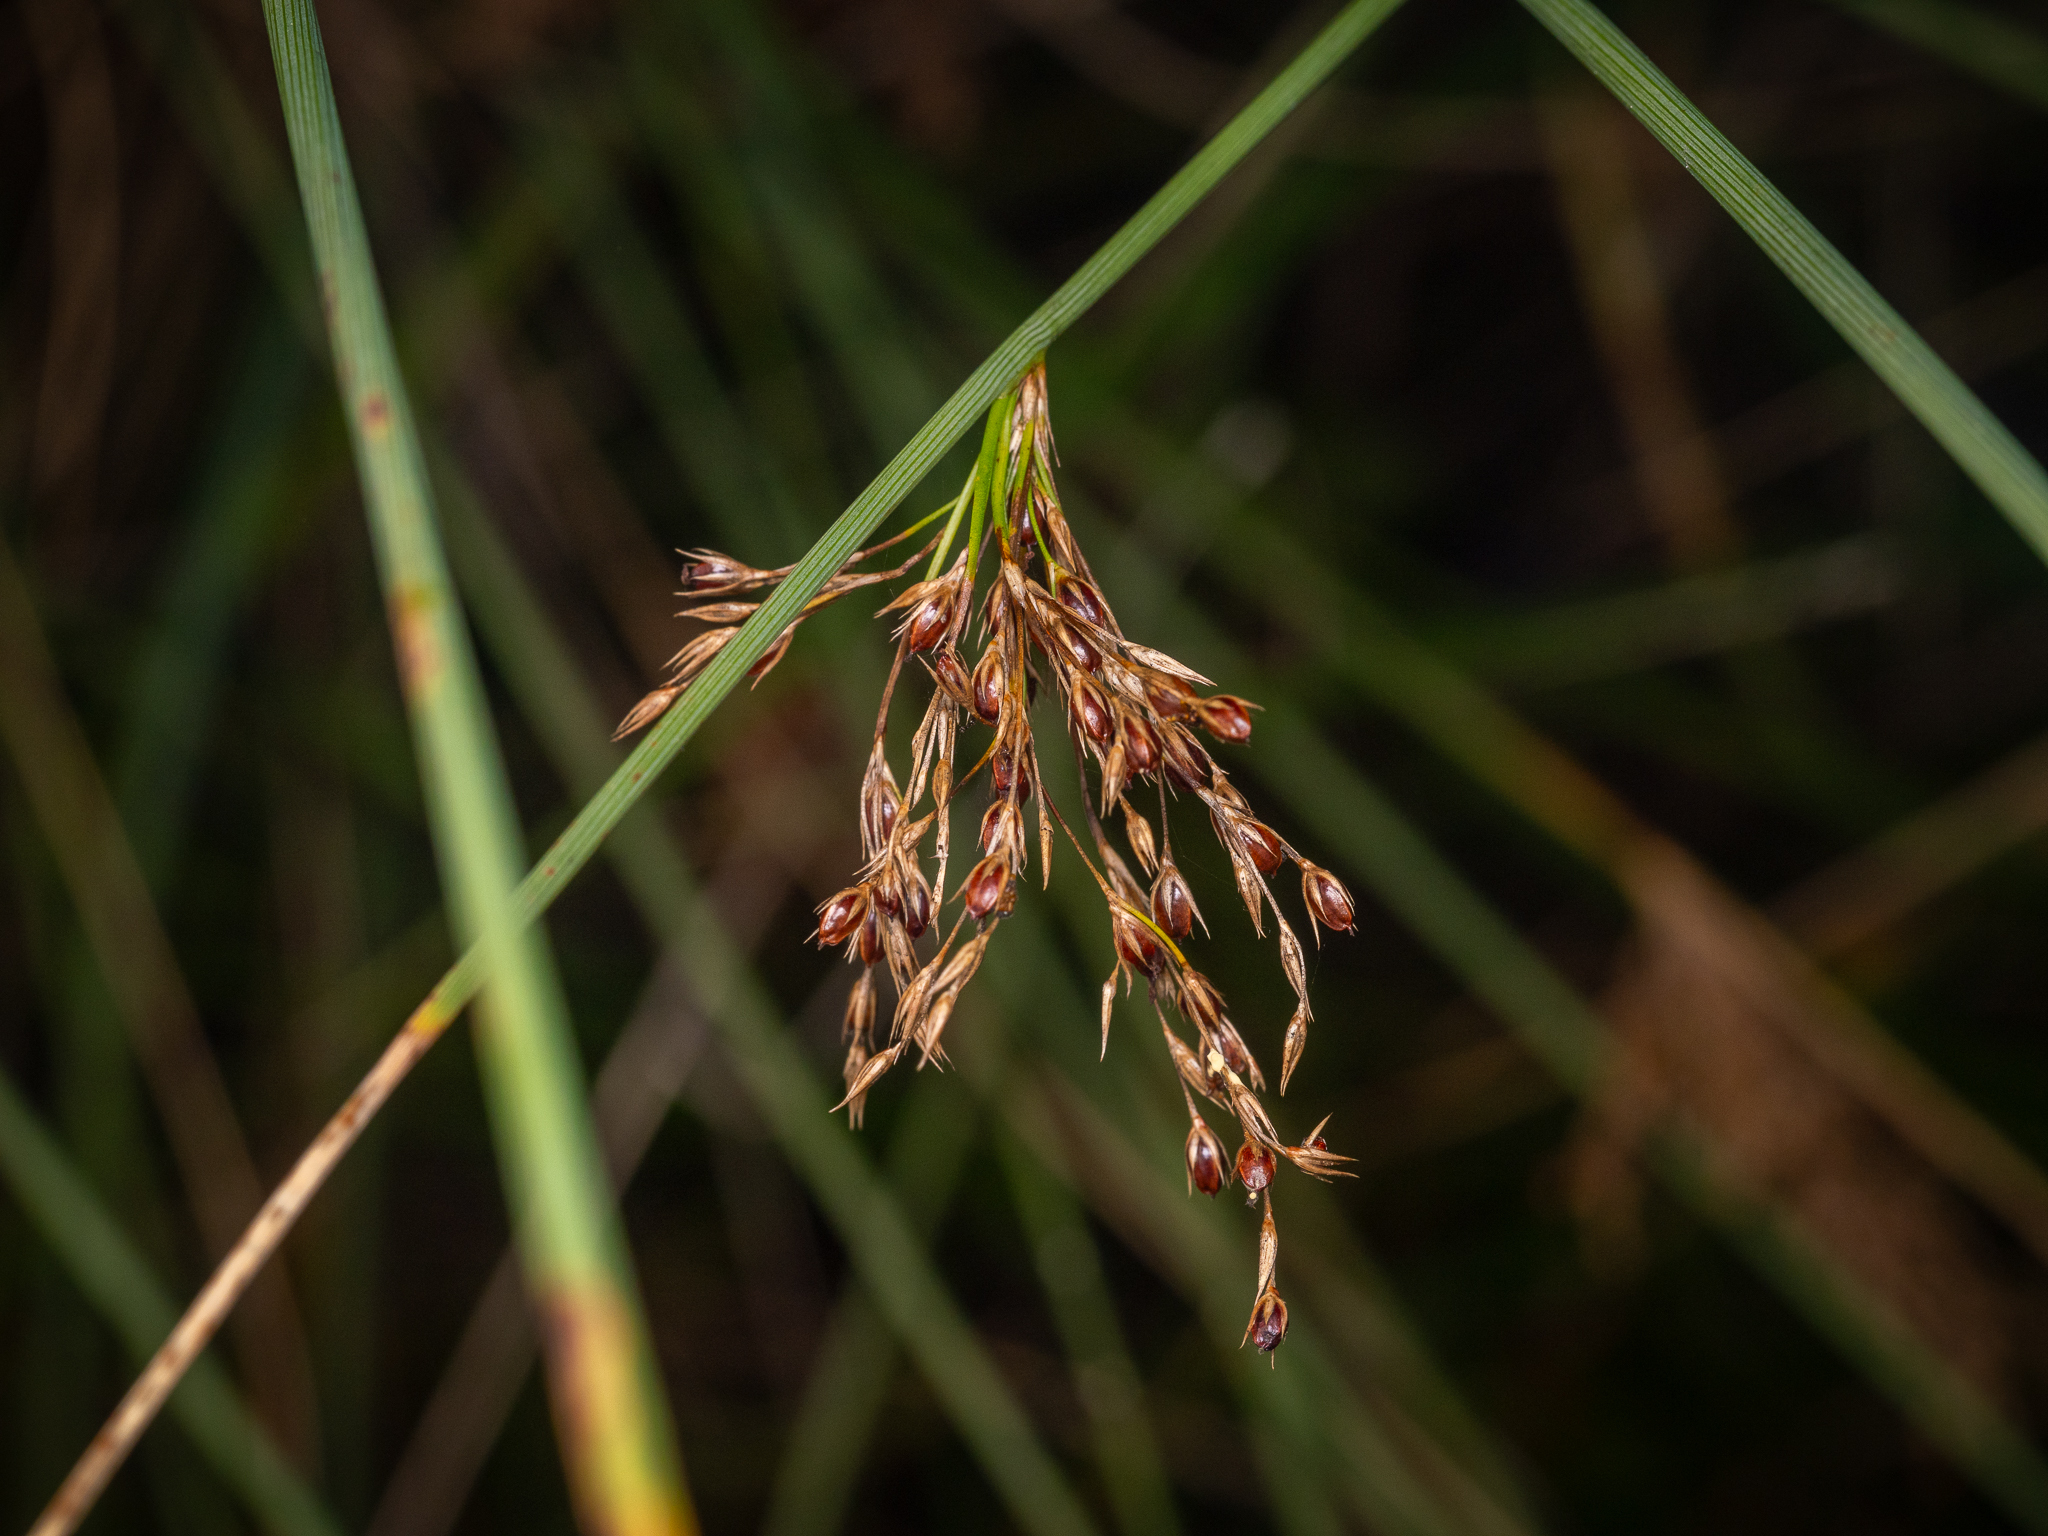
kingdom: Plantae
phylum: Tracheophyta
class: Liliopsida
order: Poales
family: Juncaceae
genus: Juncus
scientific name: Juncus inflexus
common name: Hard rush
